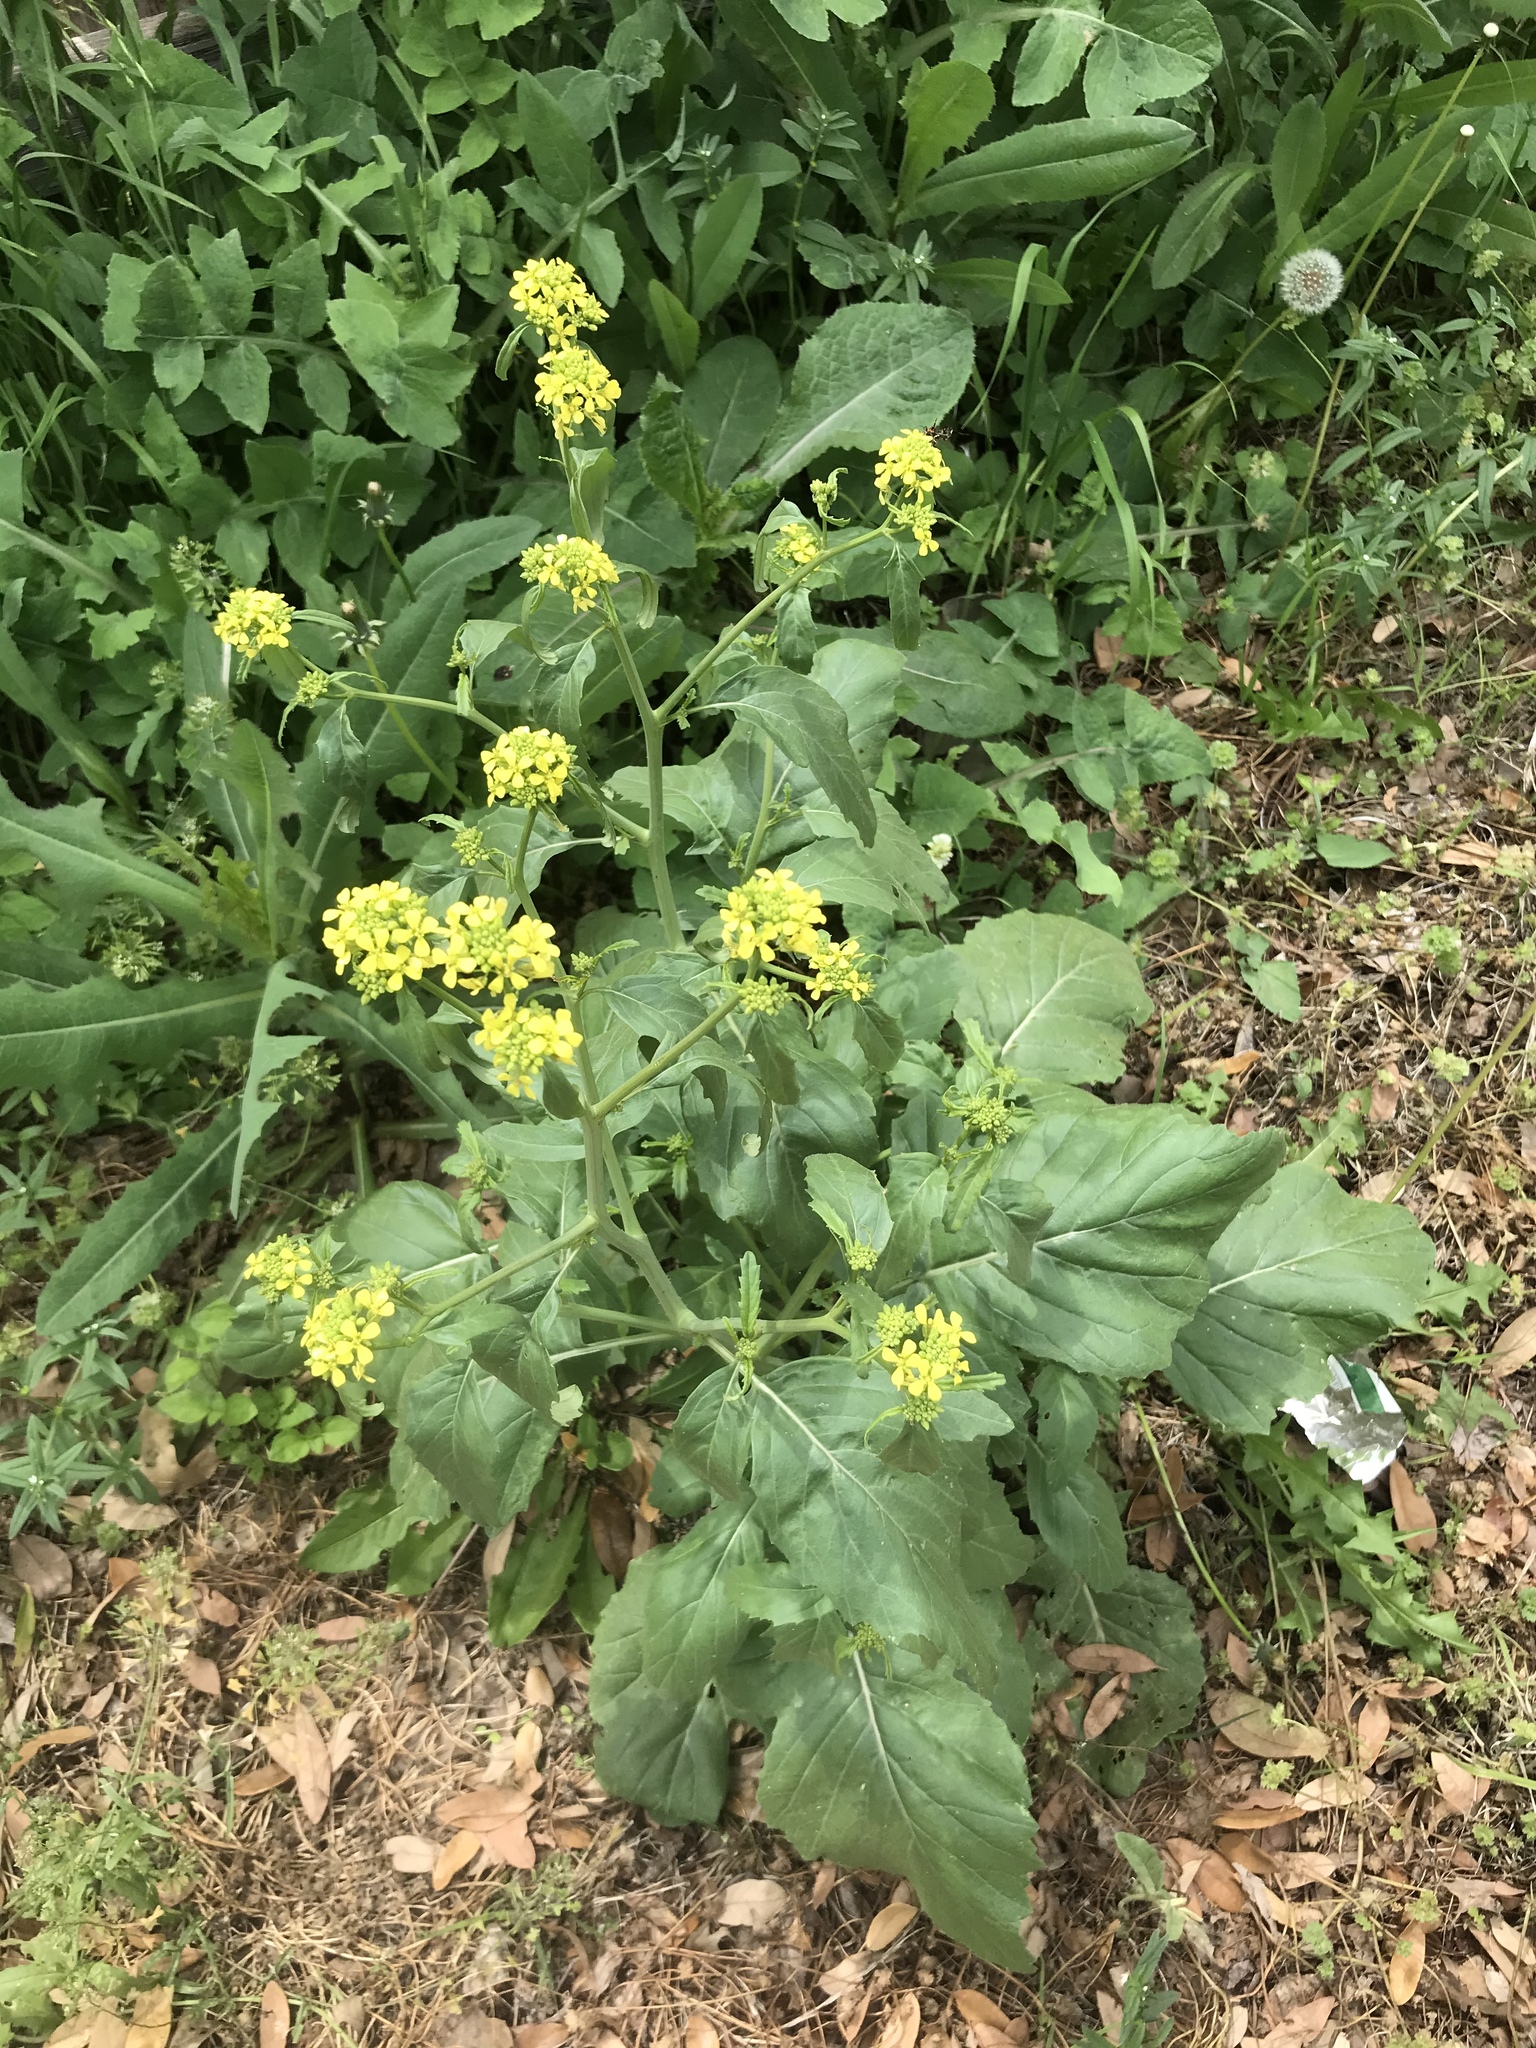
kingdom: Plantae
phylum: Tracheophyta
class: Magnoliopsida
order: Brassicales
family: Brassicaceae
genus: Rapistrum
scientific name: Rapistrum rugosum
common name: Annual bastardcabbage
